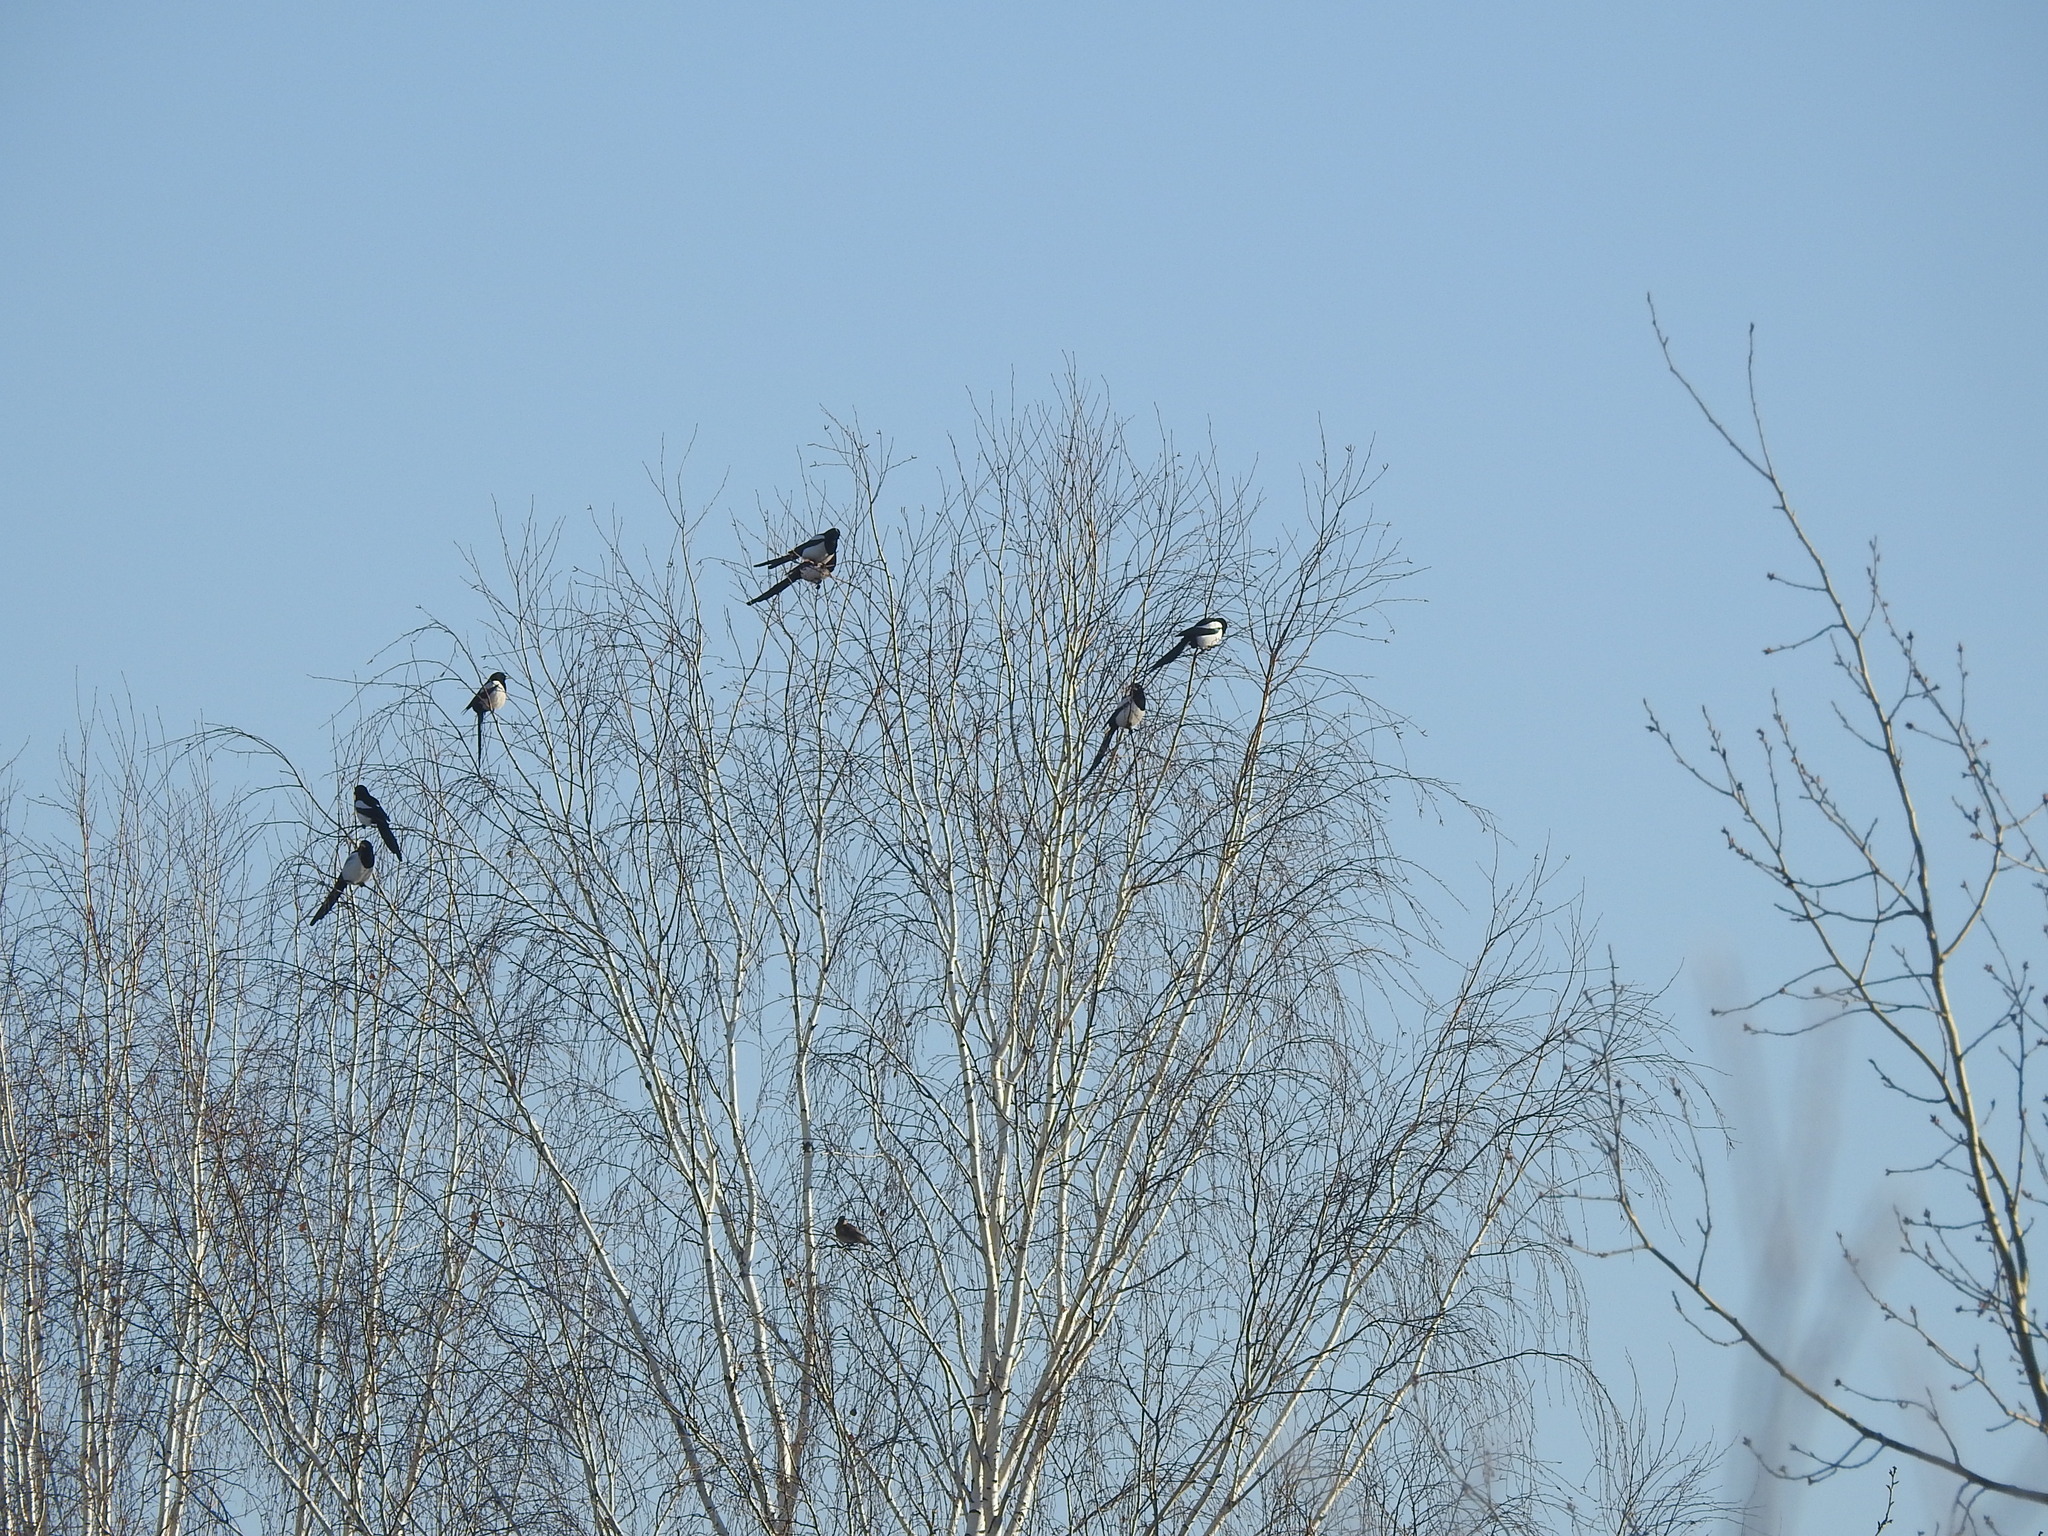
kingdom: Animalia
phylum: Chordata
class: Aves
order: Passeriformes
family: Corvidae
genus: Pica
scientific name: Pica pica
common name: Eurasian magpie
